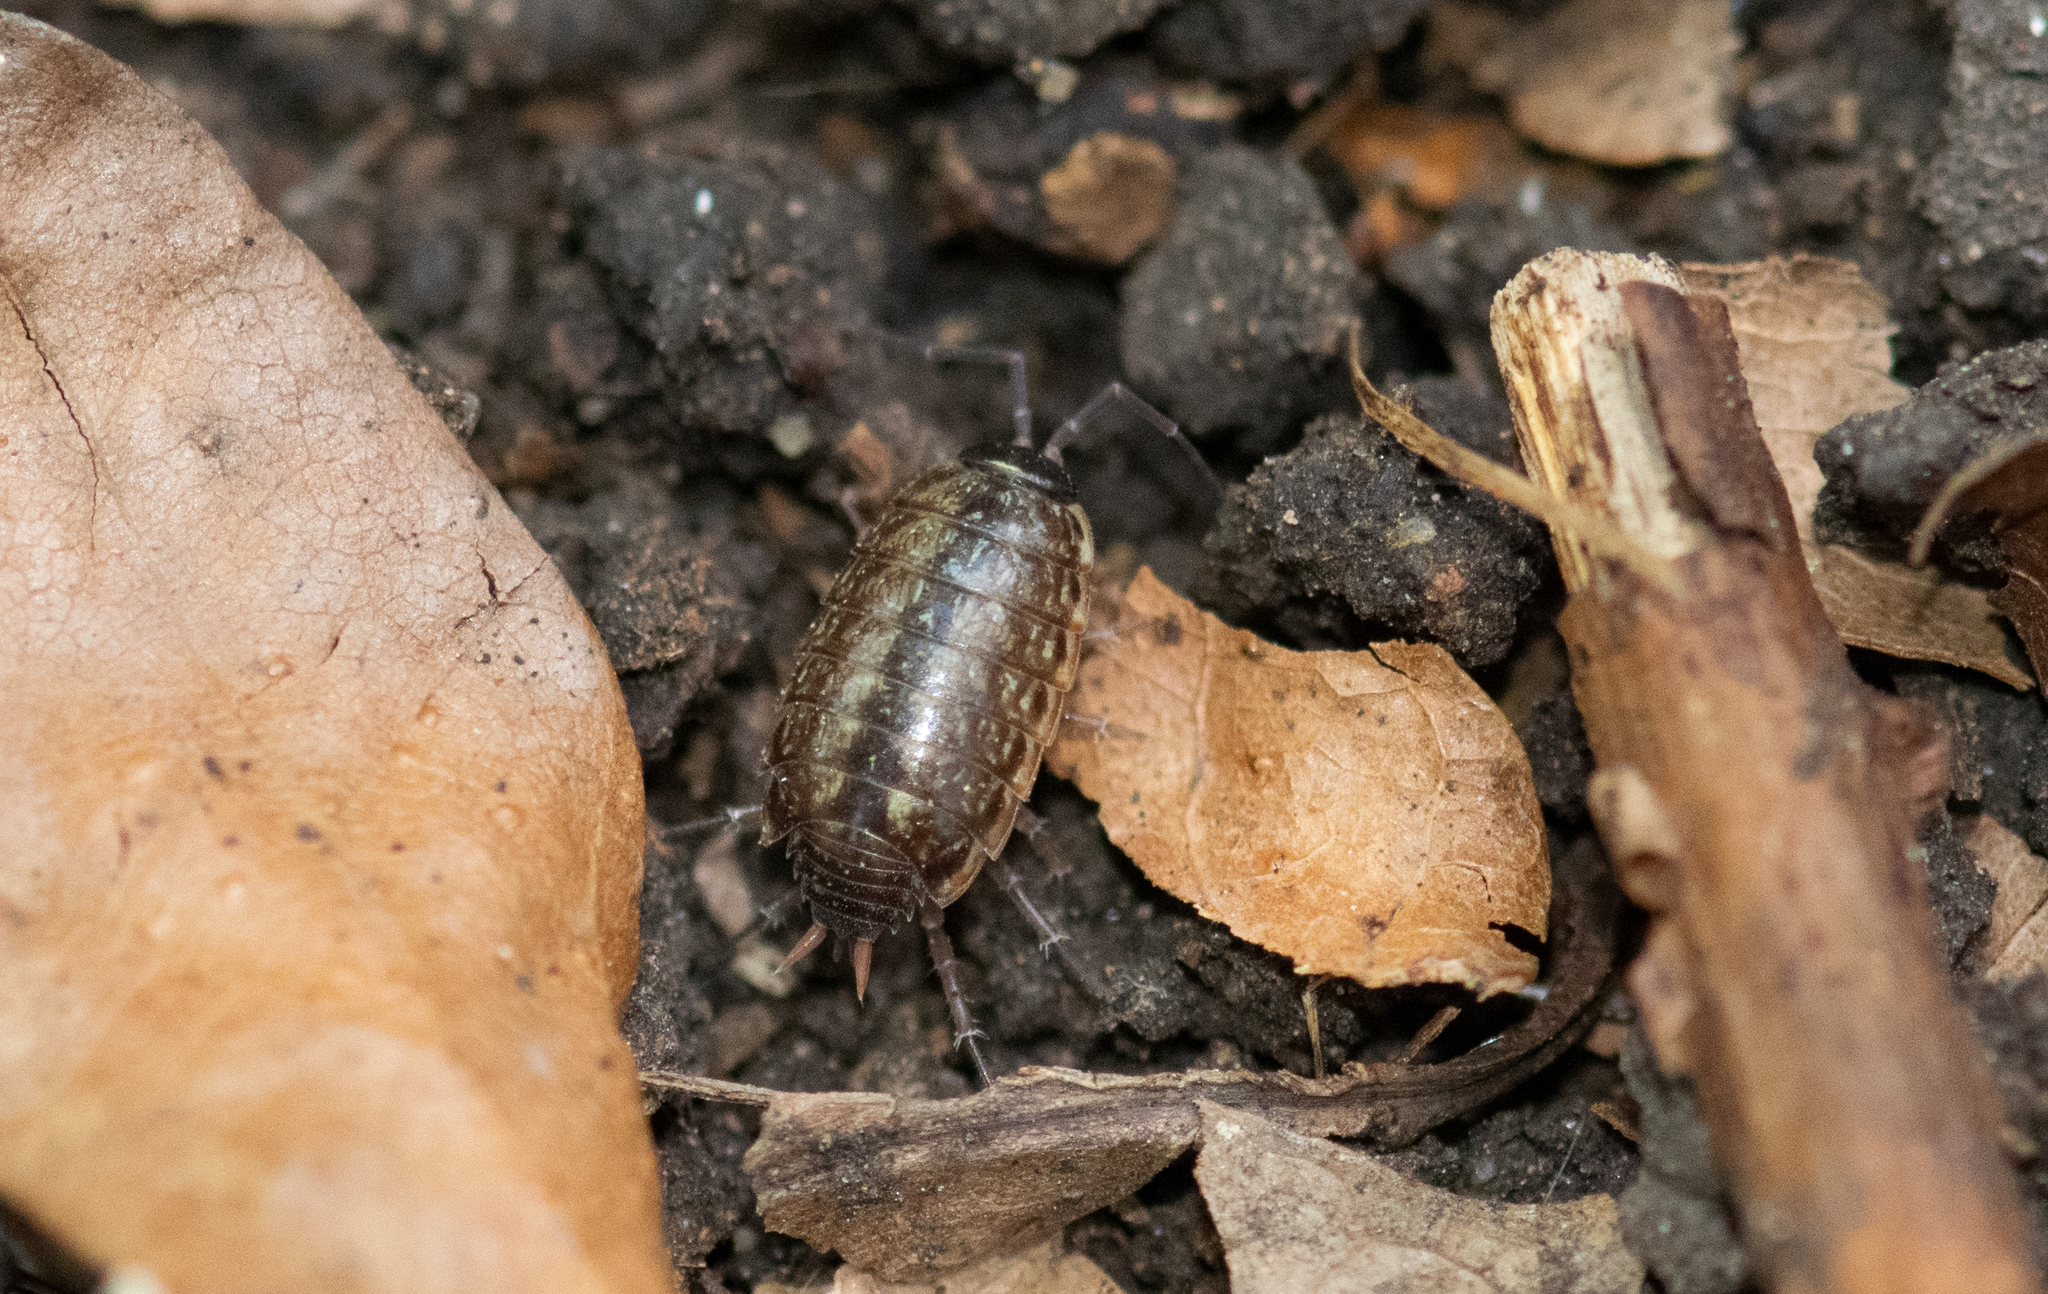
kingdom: Animalia
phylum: Arthropoda
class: Malacostraca
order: Isopoda
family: Philosciidae
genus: Philoscia
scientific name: Philoscia muscorum
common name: Common striped woodlouse
